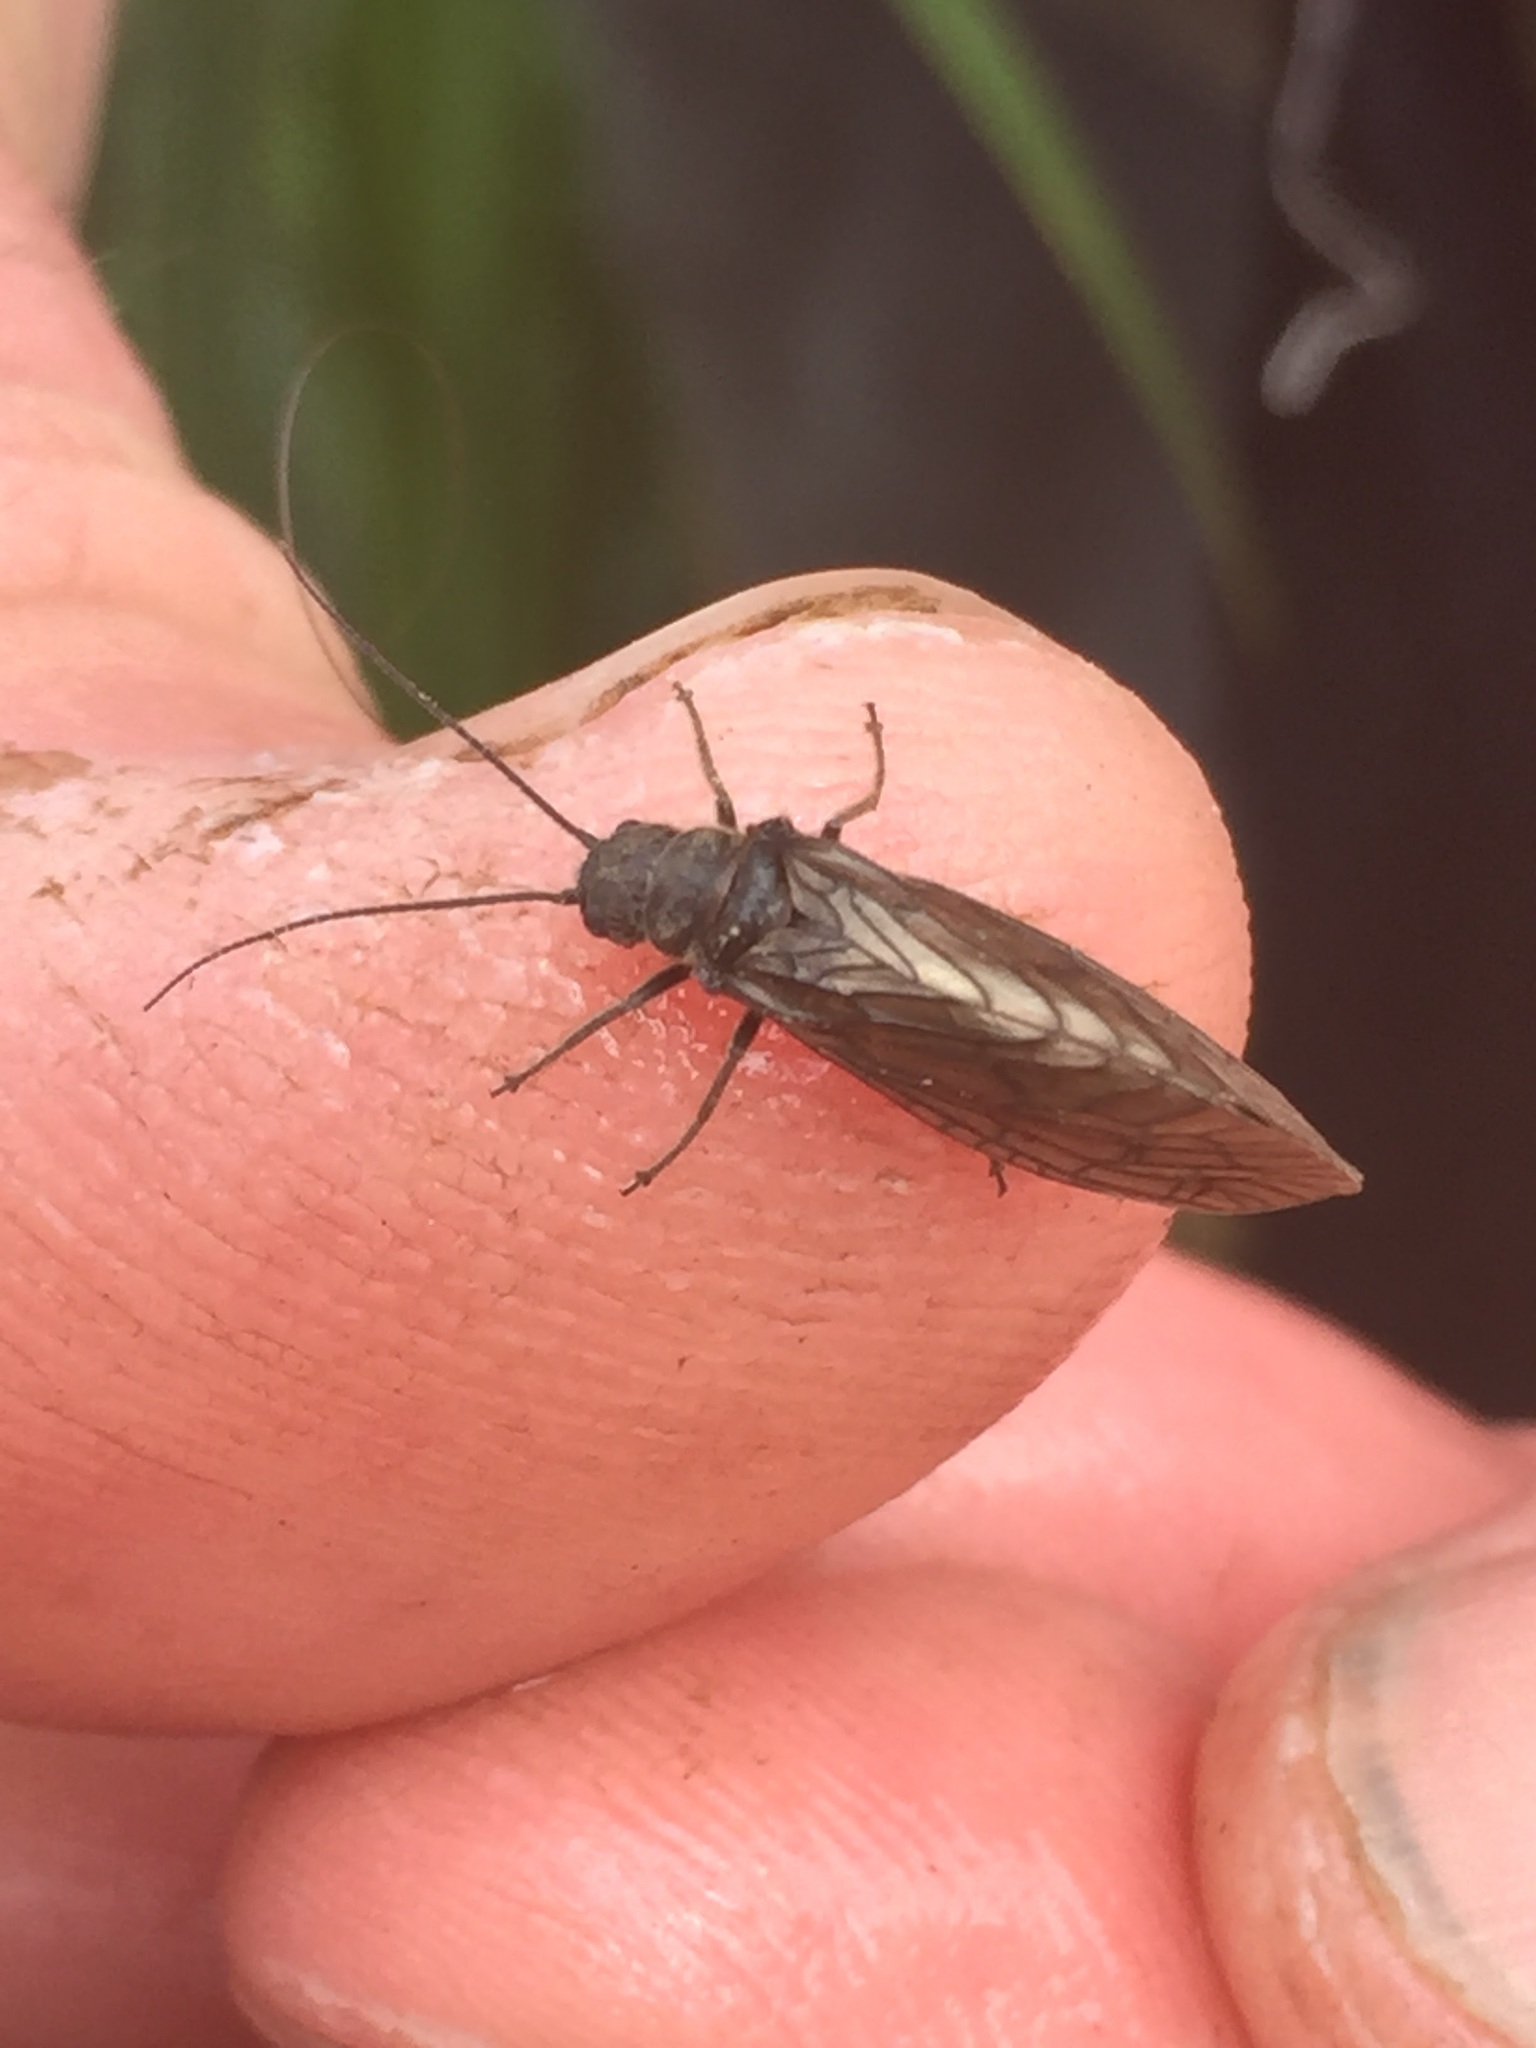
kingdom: Animalia
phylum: Arthropoda
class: Insecta
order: Megaloptera
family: Sialidae
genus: Sialis
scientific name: Sialis californica
